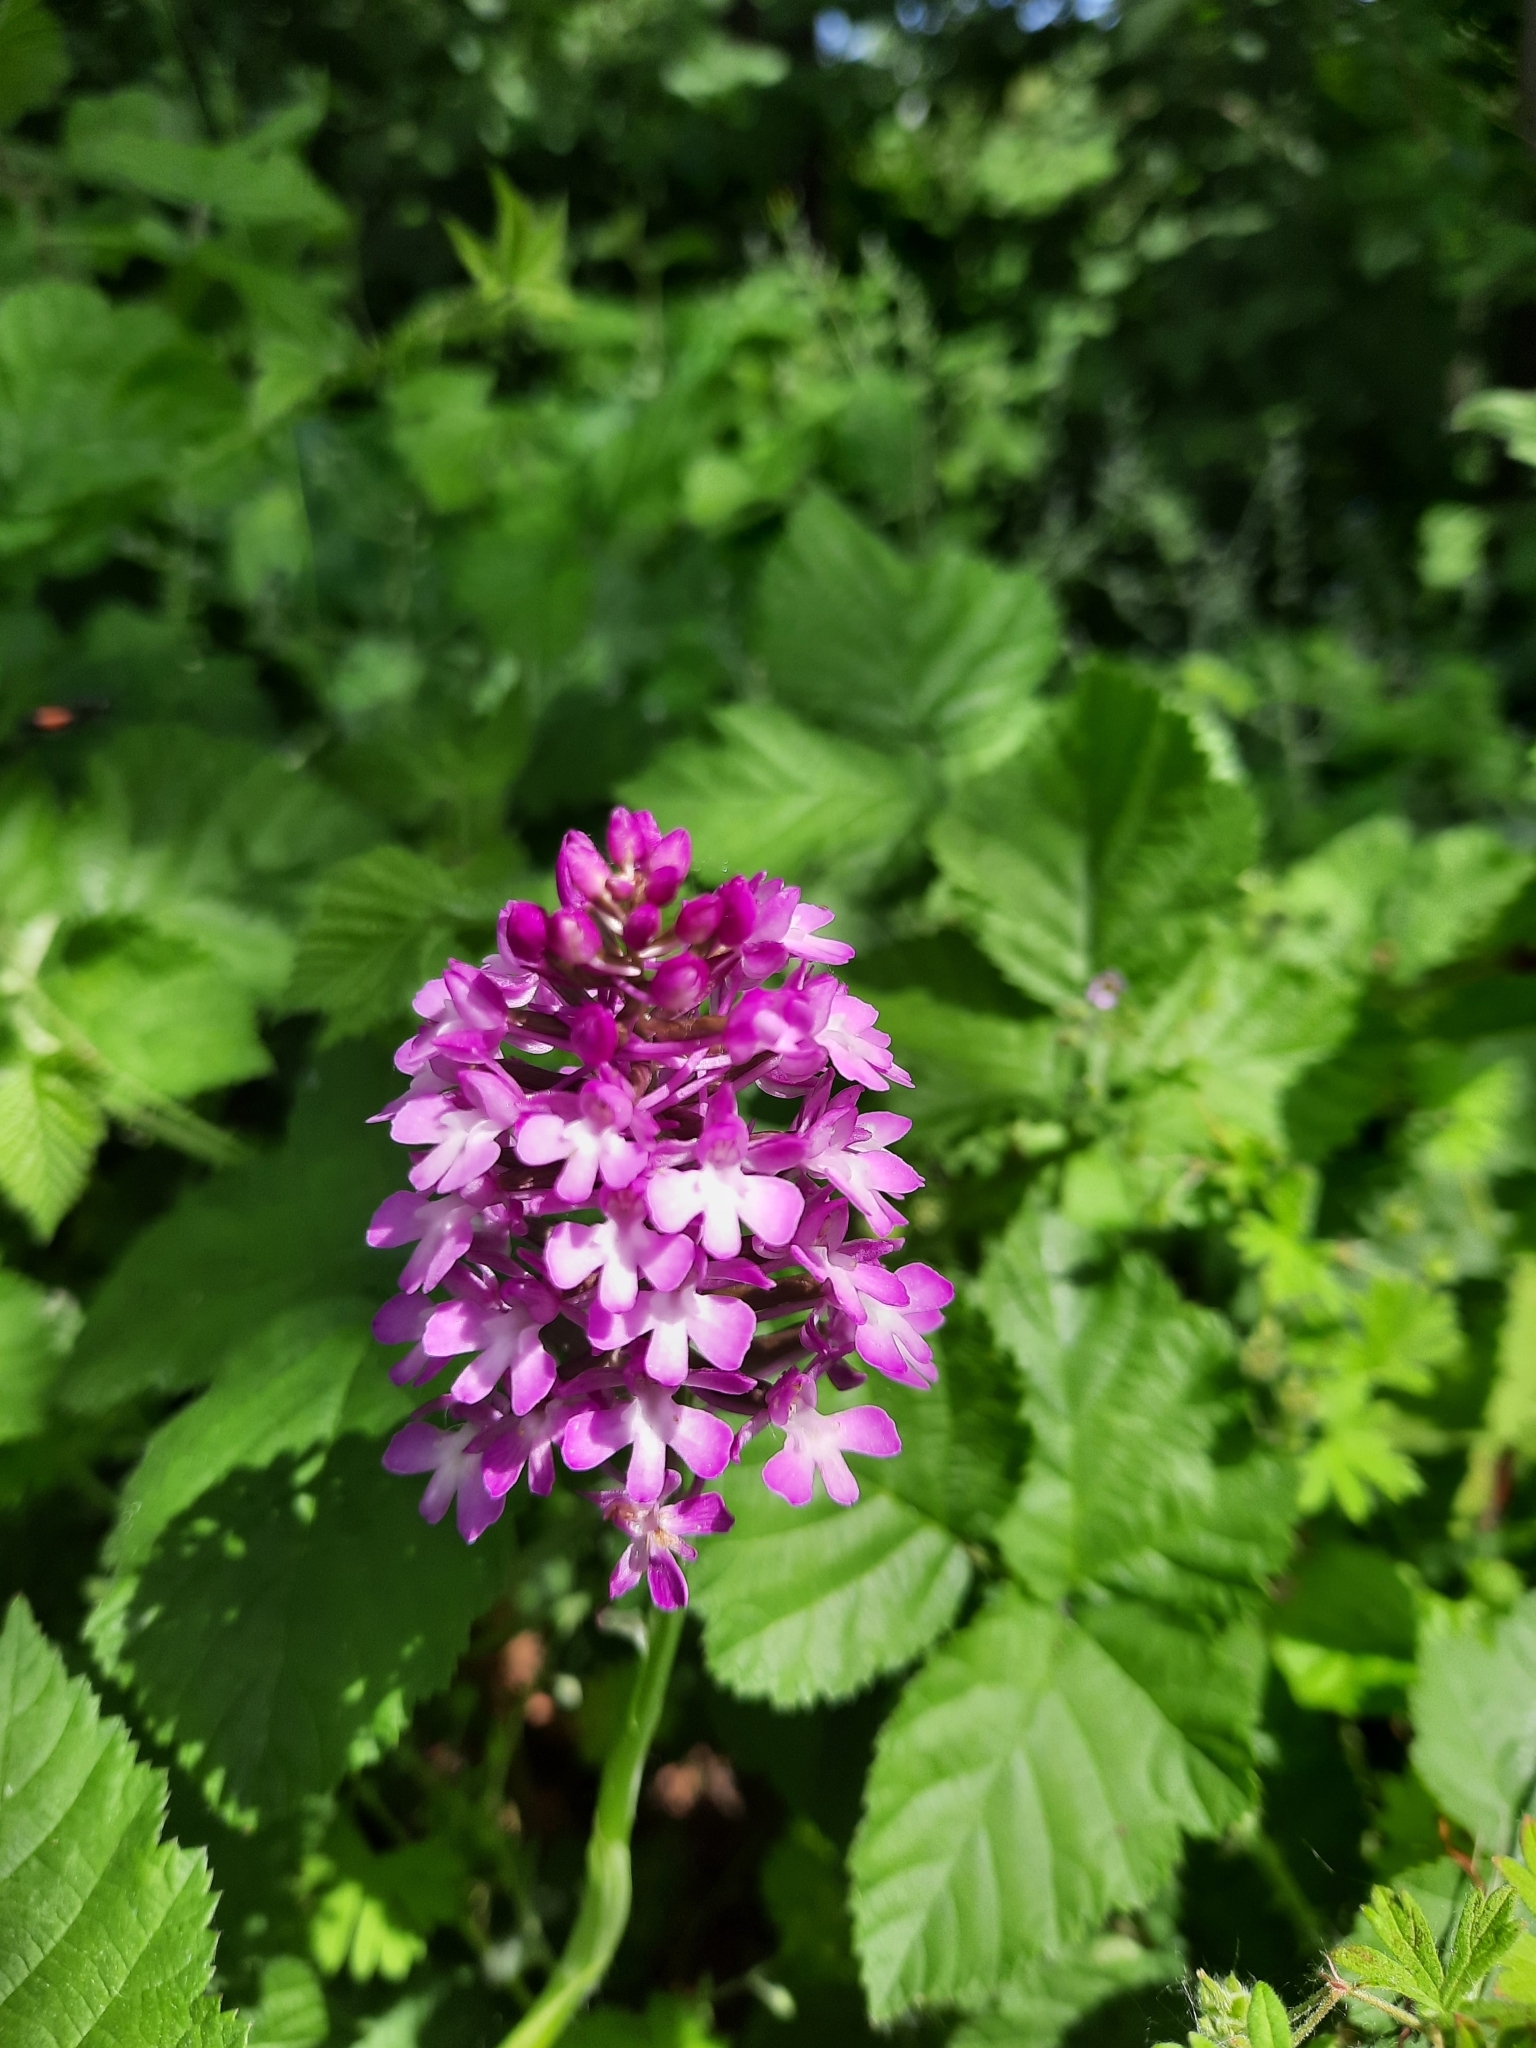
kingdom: Plantae
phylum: Tracheophyta
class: Liliopsida
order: Asparagales
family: Orchidaceae
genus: Anacamptis
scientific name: Anacamptis pyramidalis
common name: Pyramidal orchid
